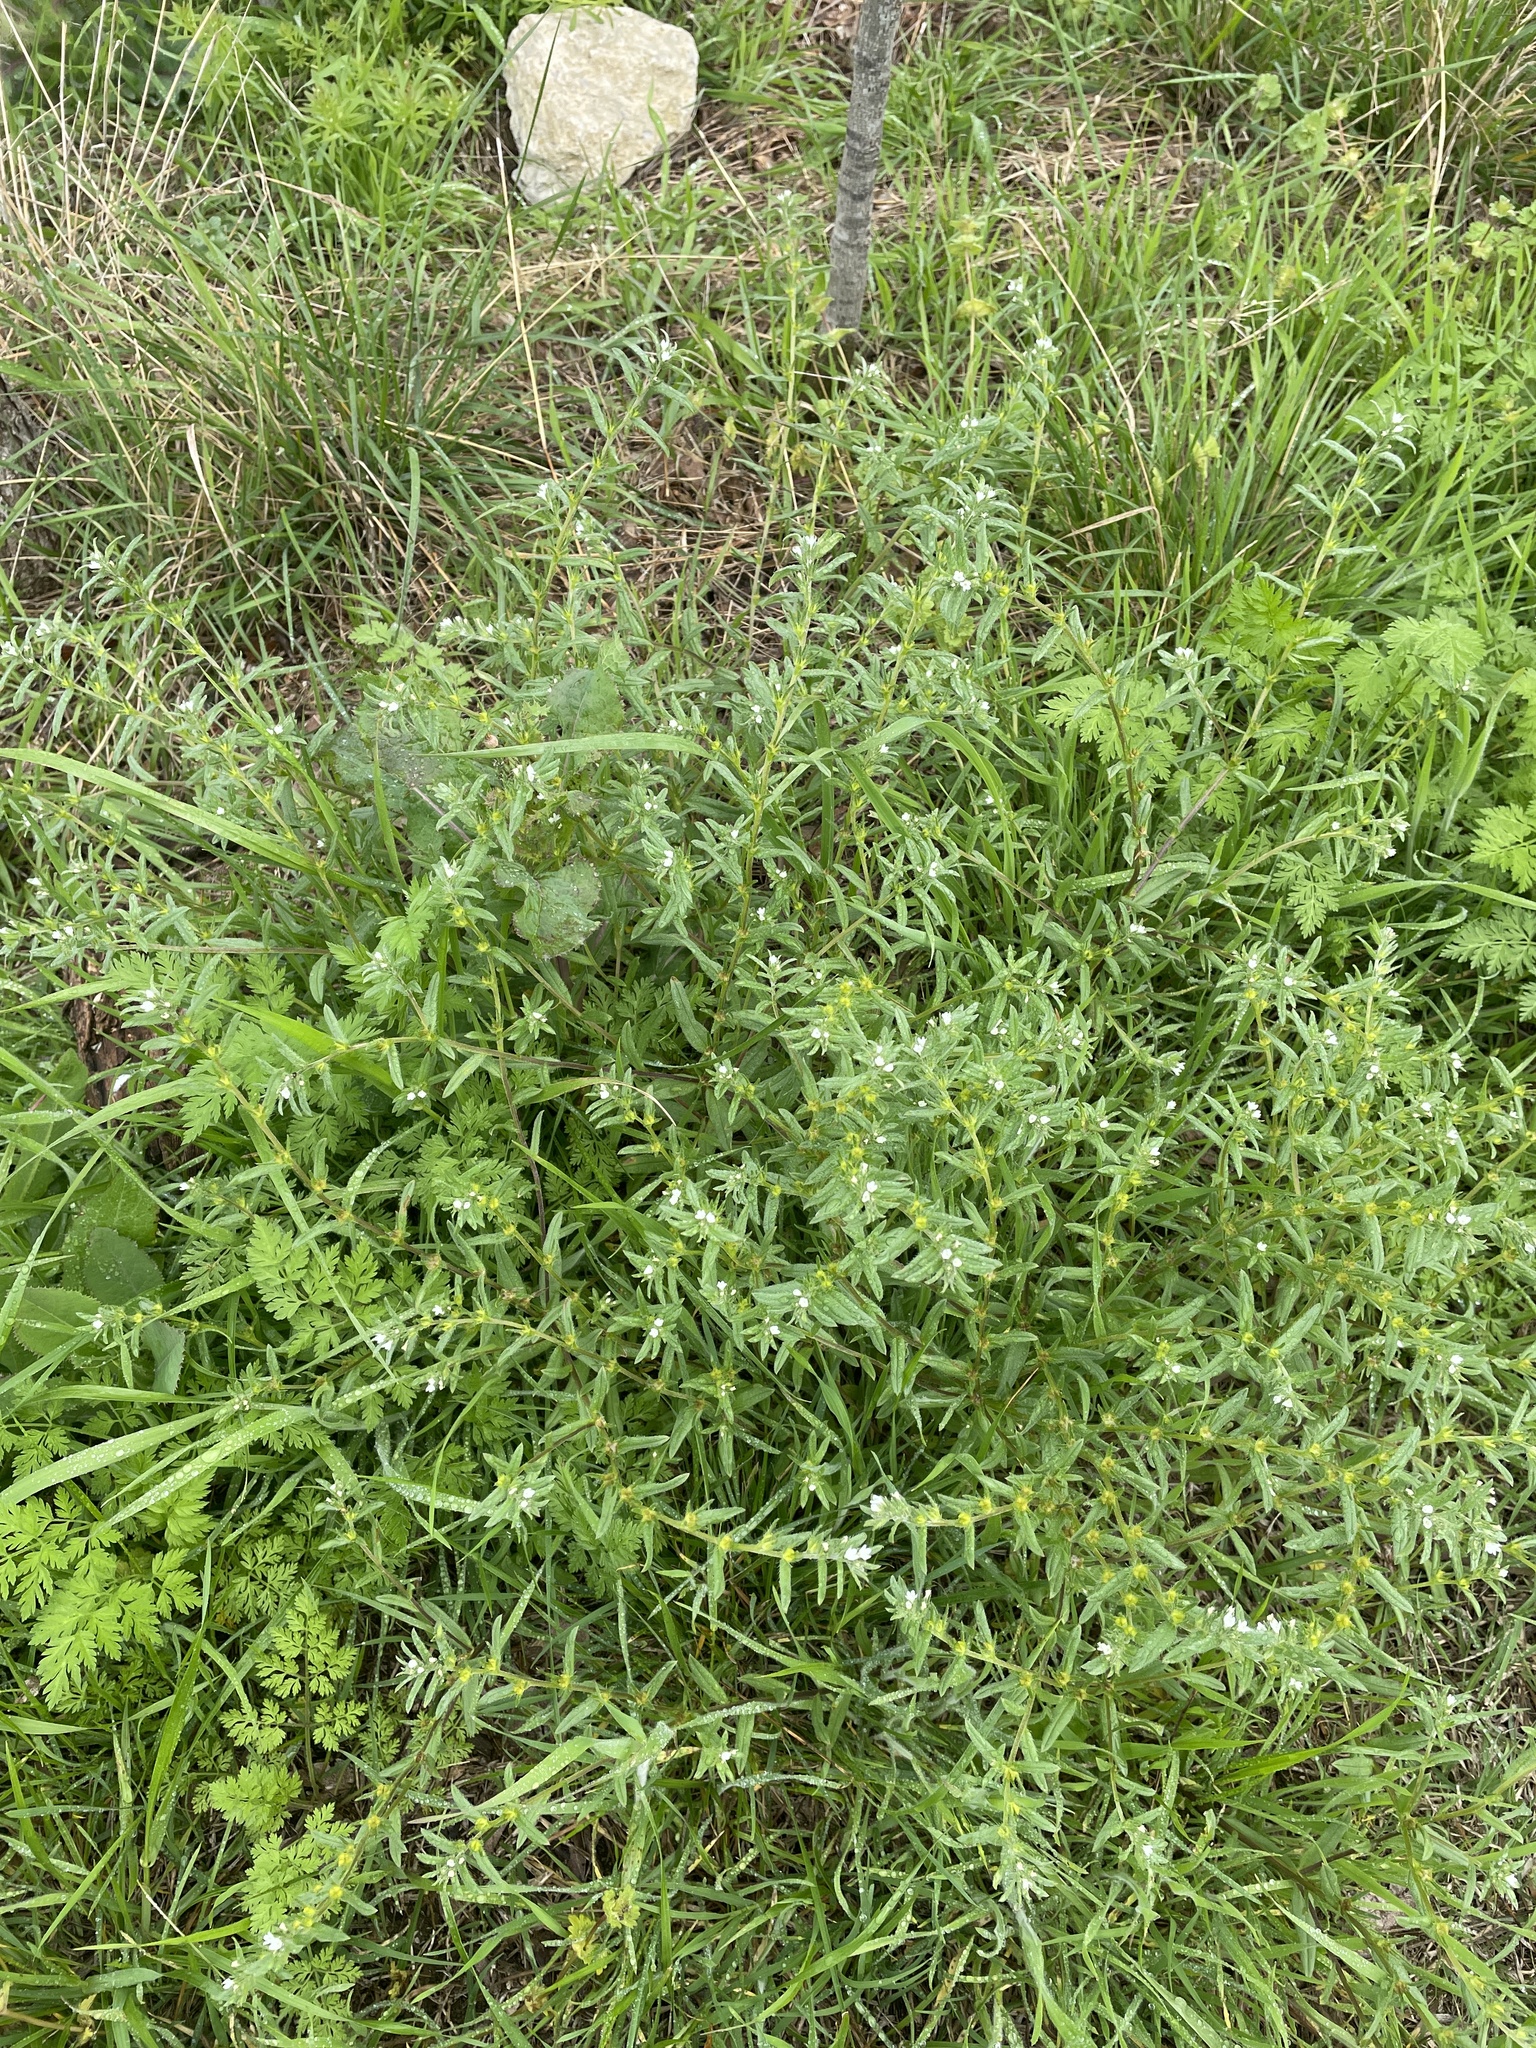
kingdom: Plantae
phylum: Tracheophyta
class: Magnoliopsida
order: Boraginales
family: Boraginaceae
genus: Buglossoides
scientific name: Buglossoides arvensis
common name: Corn gromwell
